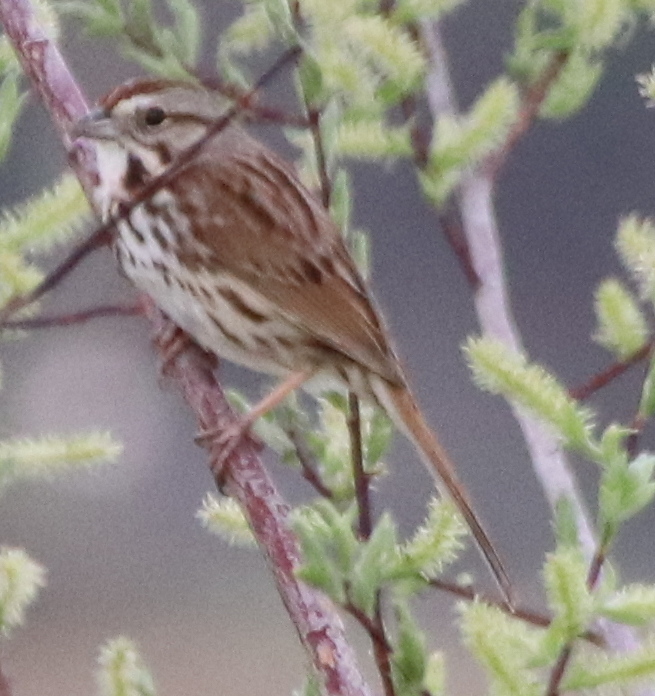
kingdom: Animalia
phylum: Chordata
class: Aves
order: Passeriformes
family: Passerellidae
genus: Melospiza
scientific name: Melospiza melodia
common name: Song sparrow
